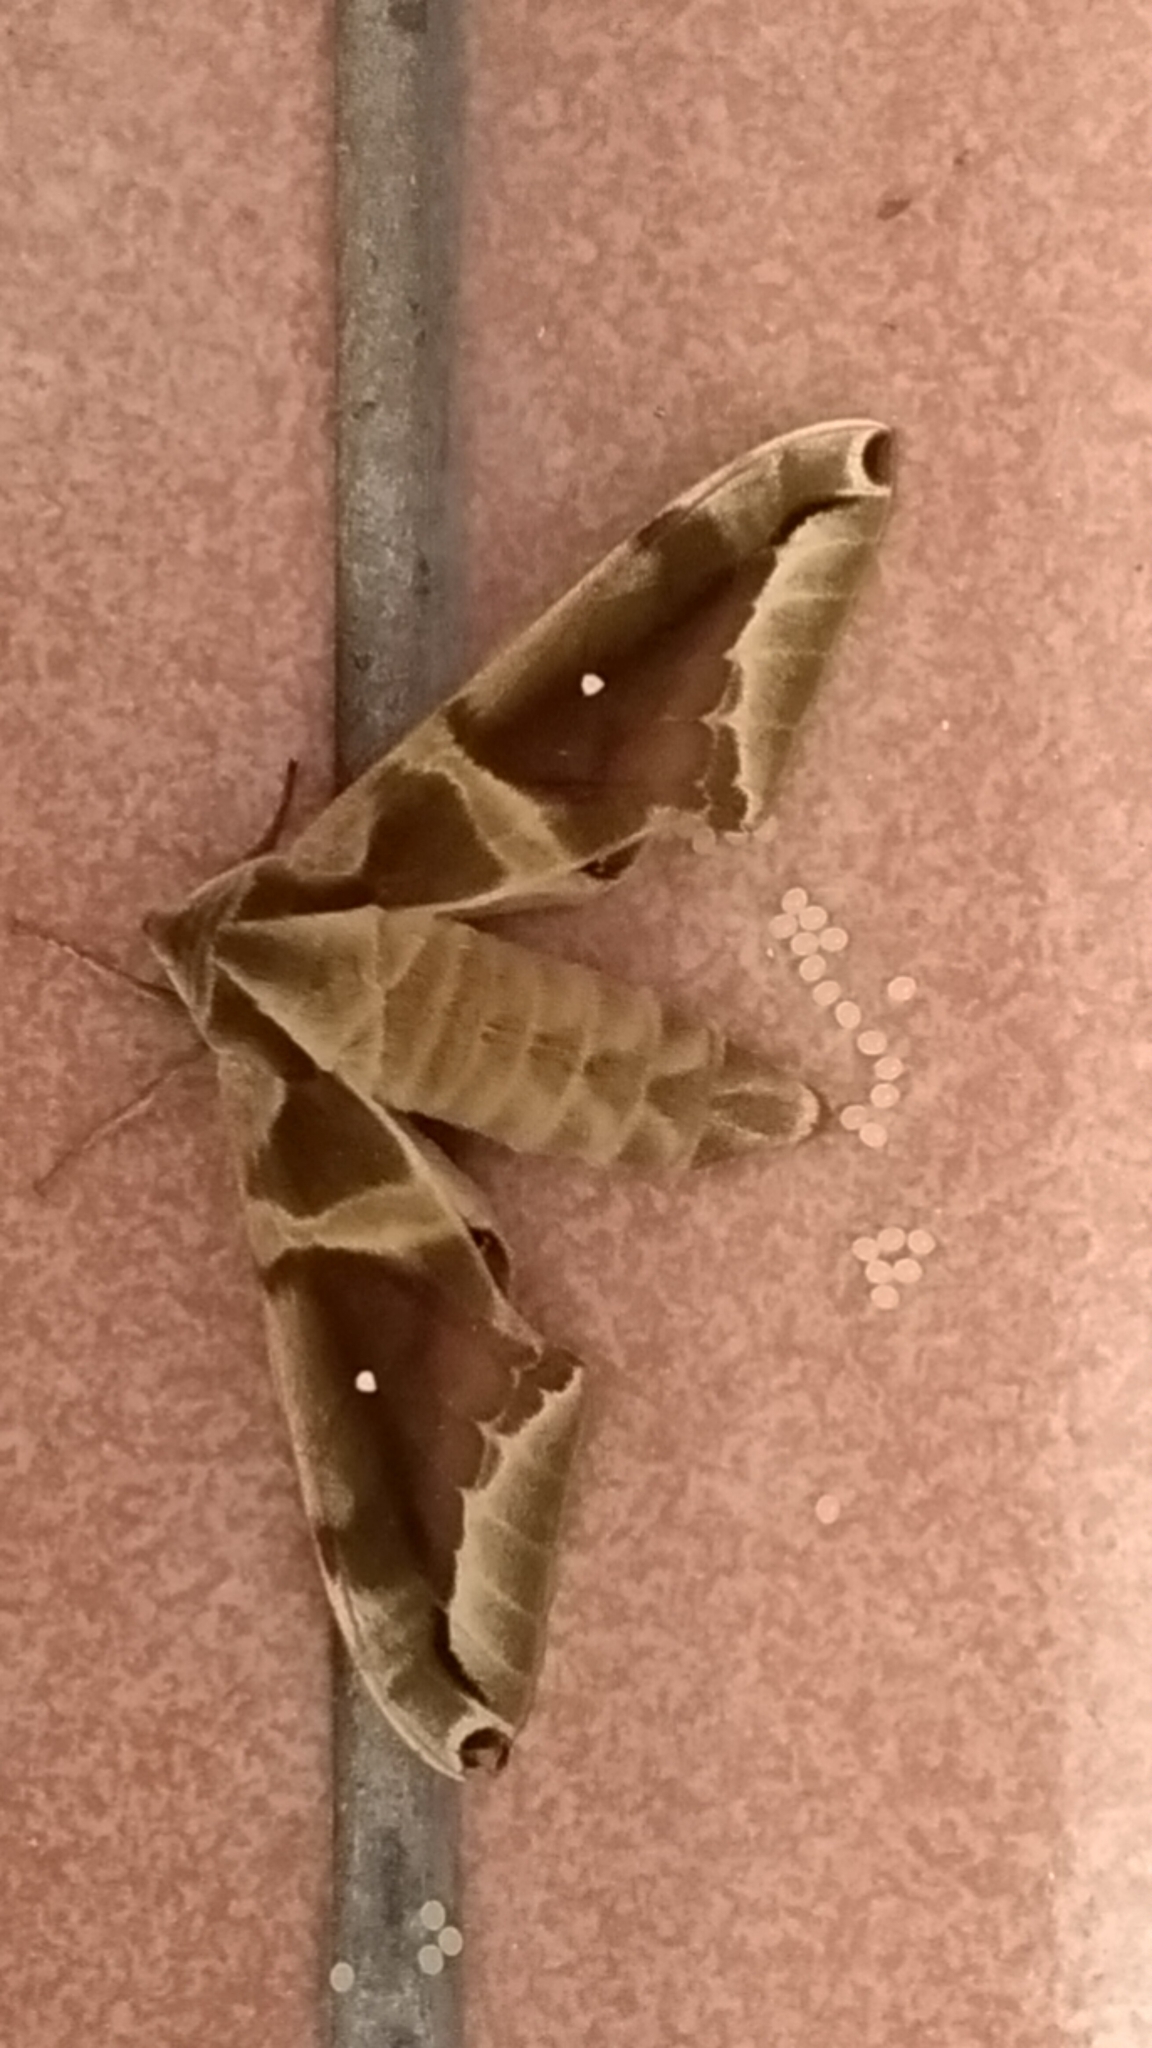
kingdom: Animalia
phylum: Arthropoda
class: Insecta
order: Lepidoptera
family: Sphingidae
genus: Parum
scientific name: Parum colligata
